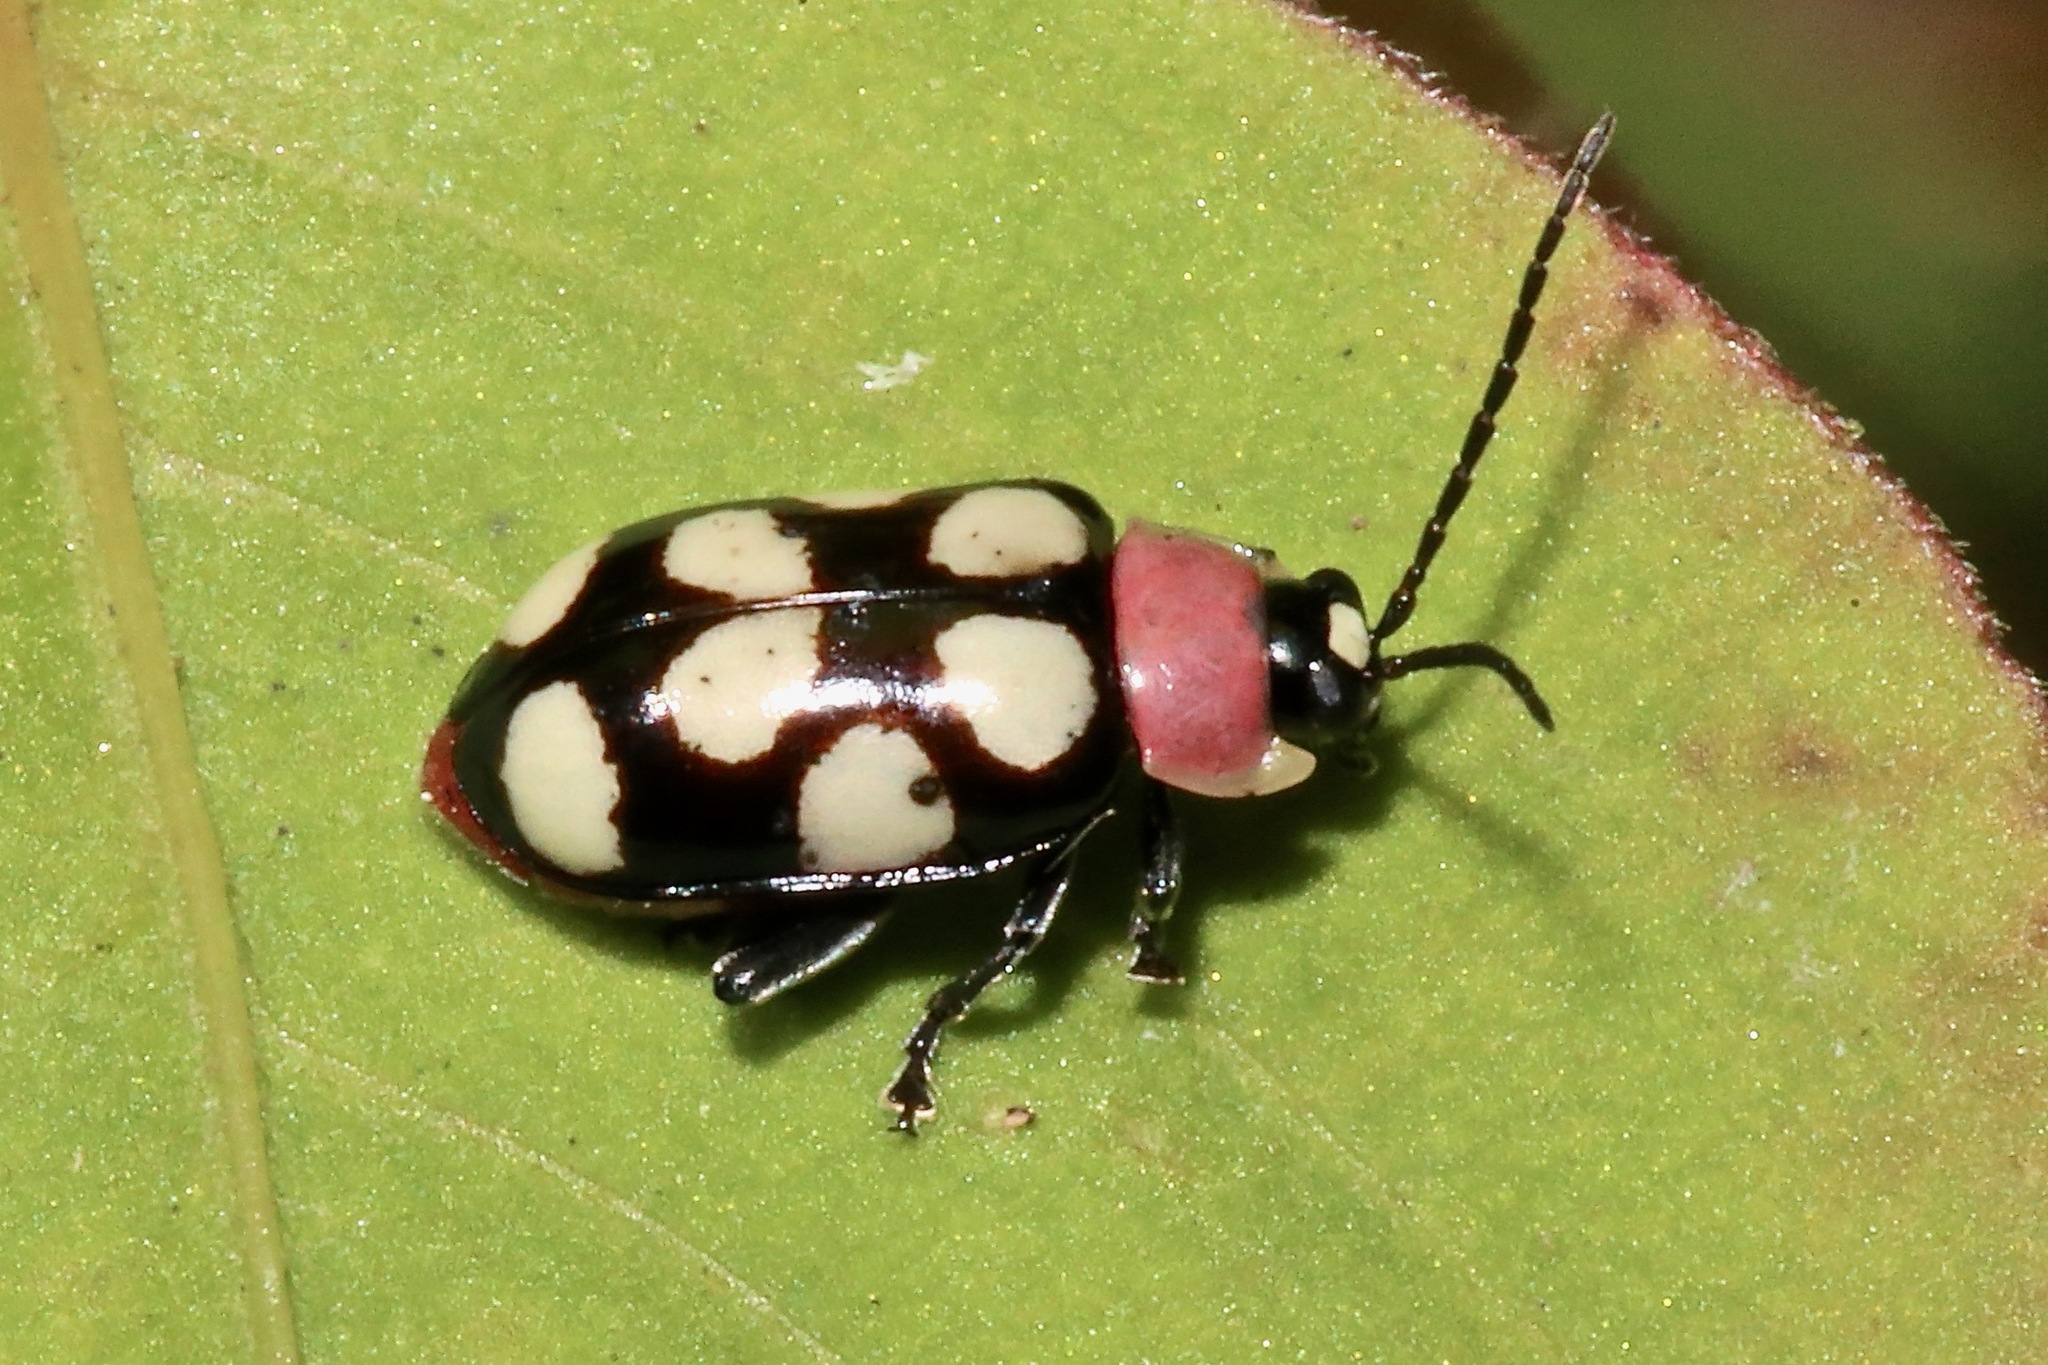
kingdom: Animalia
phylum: Arthropoda
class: Insecta
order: Coleoptera
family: Chrysomelidae
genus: Omophoita
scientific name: Omophoita aequinoctialis
